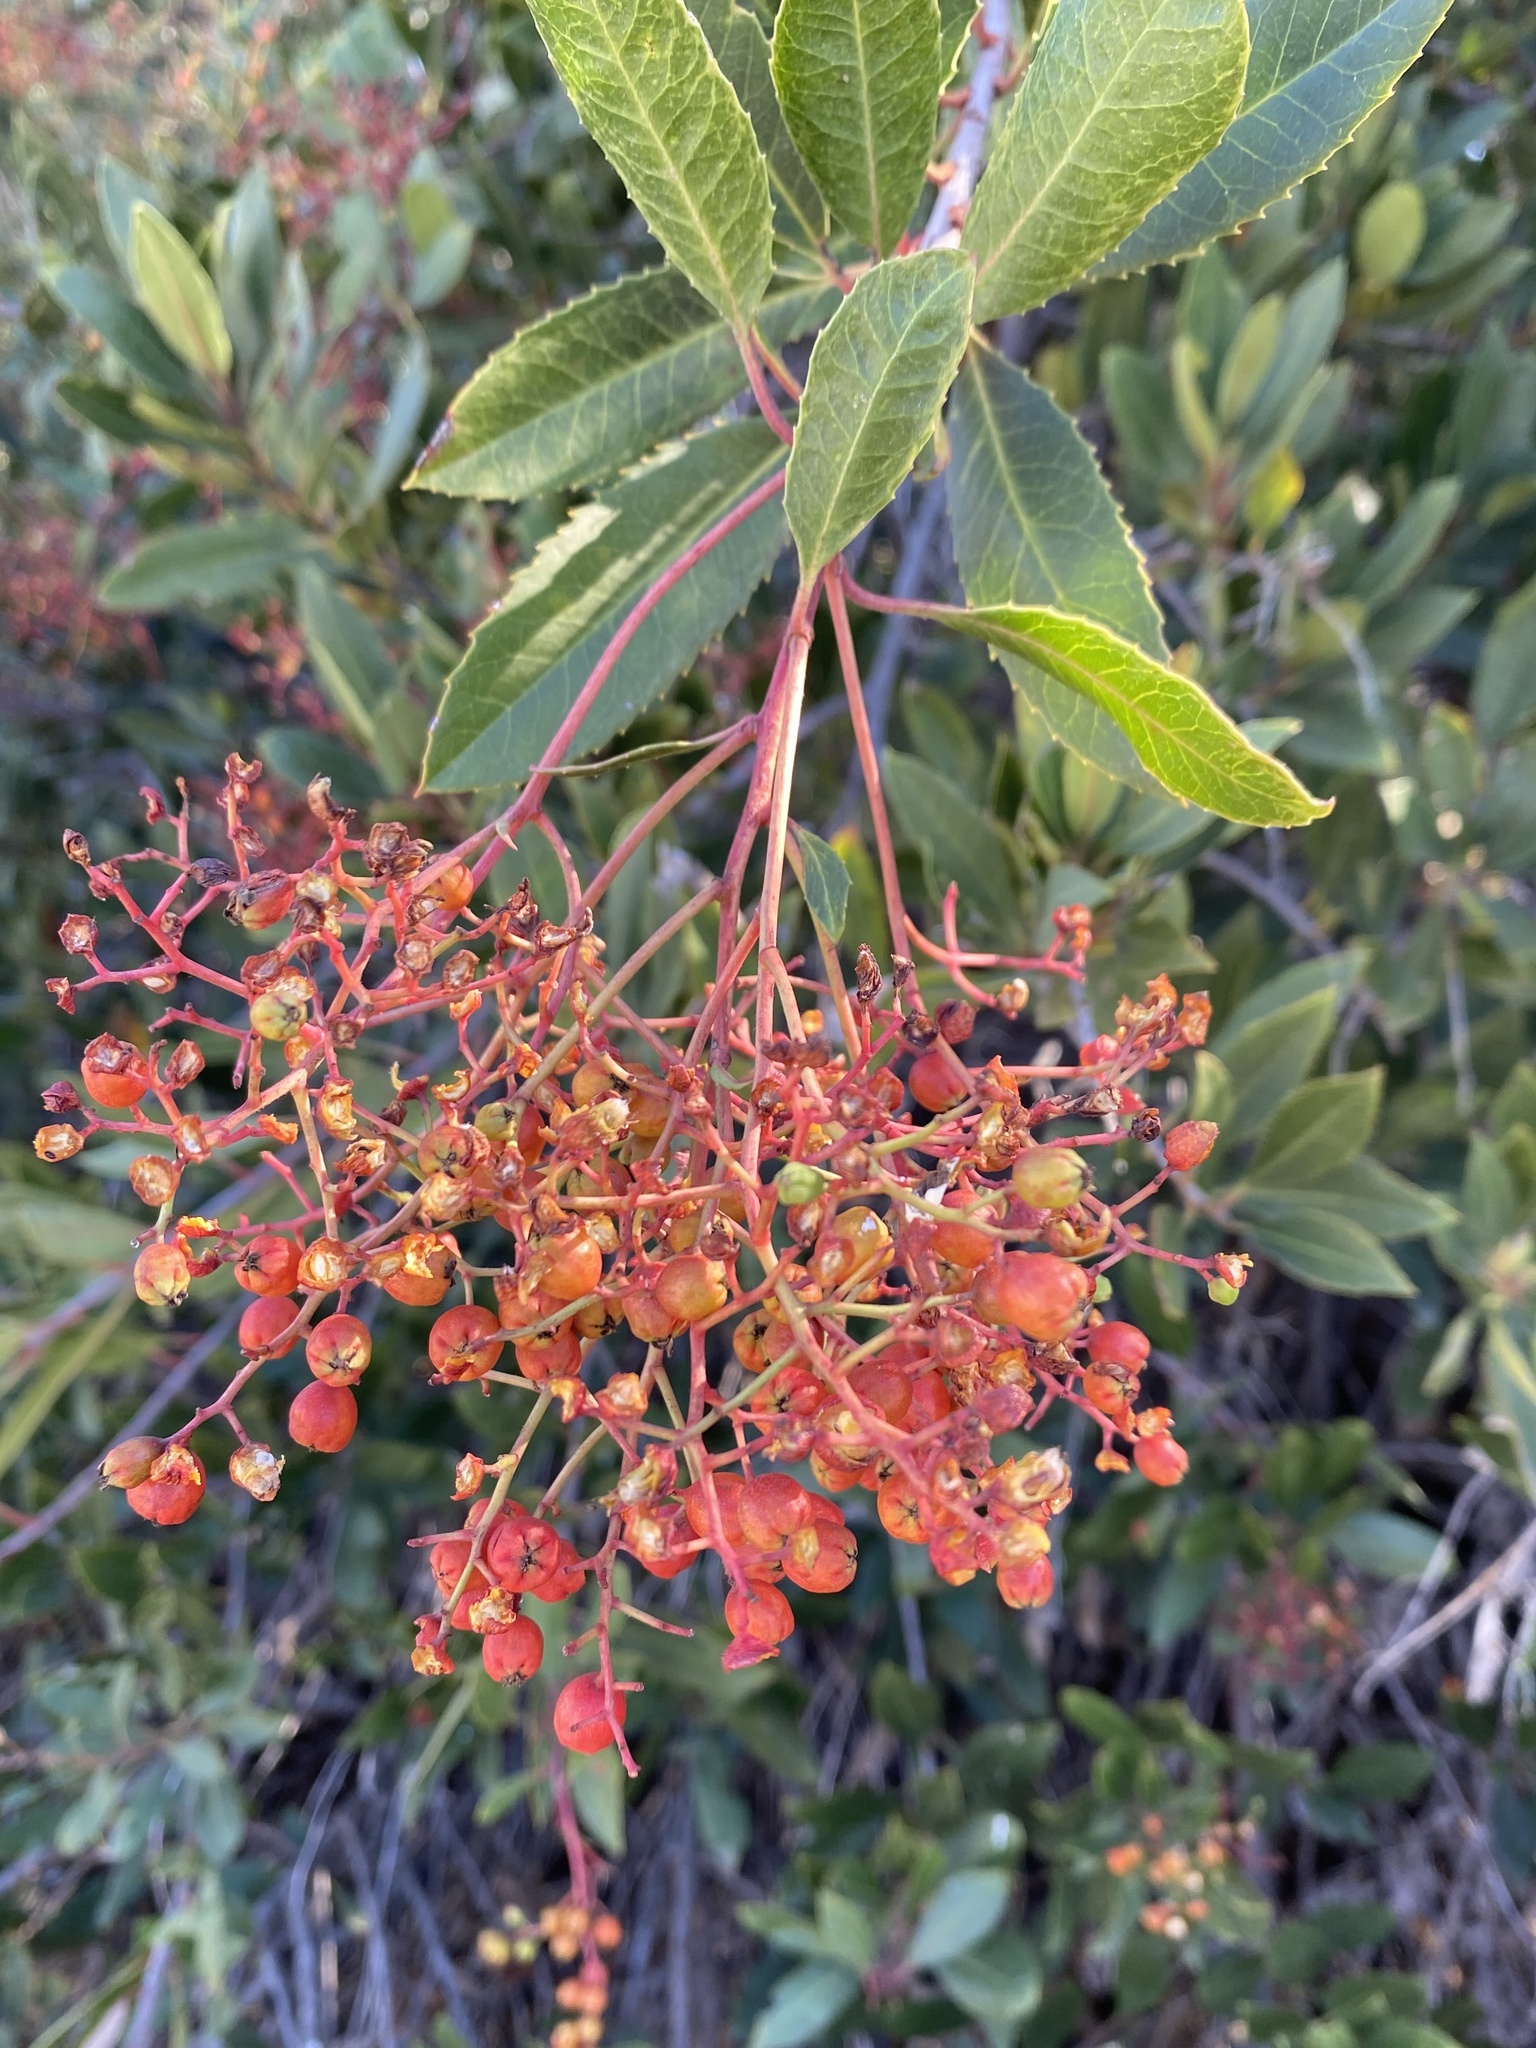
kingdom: Plantae
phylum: Tracheophyta
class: Magnoliopsida
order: Rosales
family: Rosaceae
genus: Heteromeles
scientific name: Heteromeles arbutifolia
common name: California-holly
